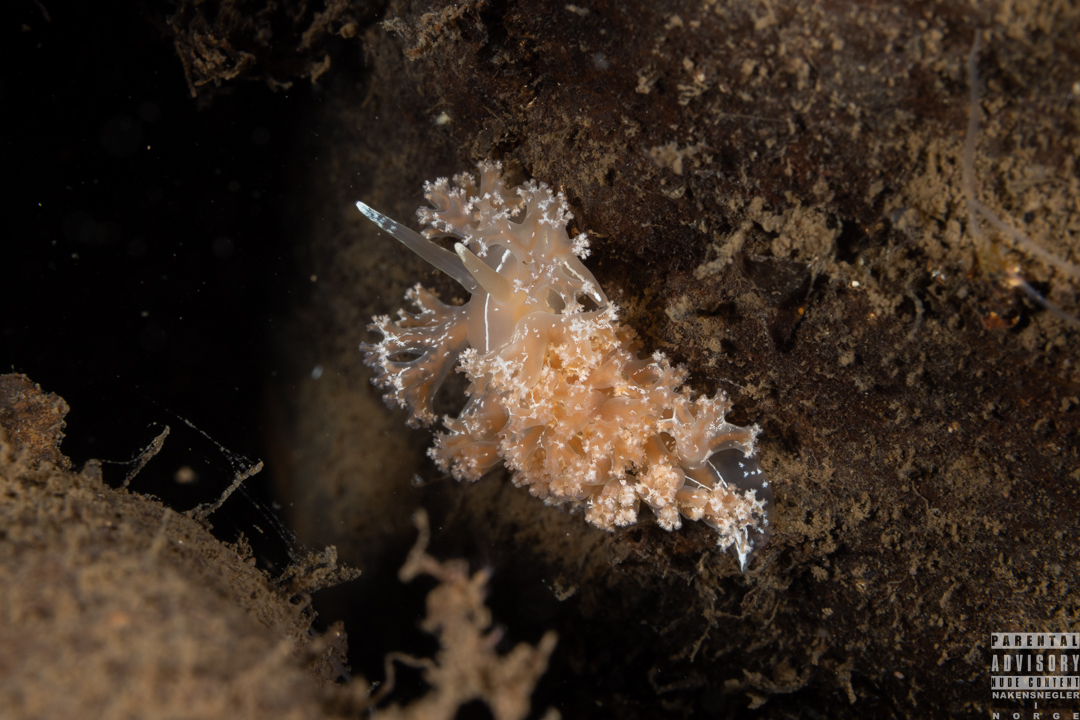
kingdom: Animalia
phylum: Mollusca
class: Gastropoda
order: Nudibranchia
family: Heroidae
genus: Hero
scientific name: Hero formosa
